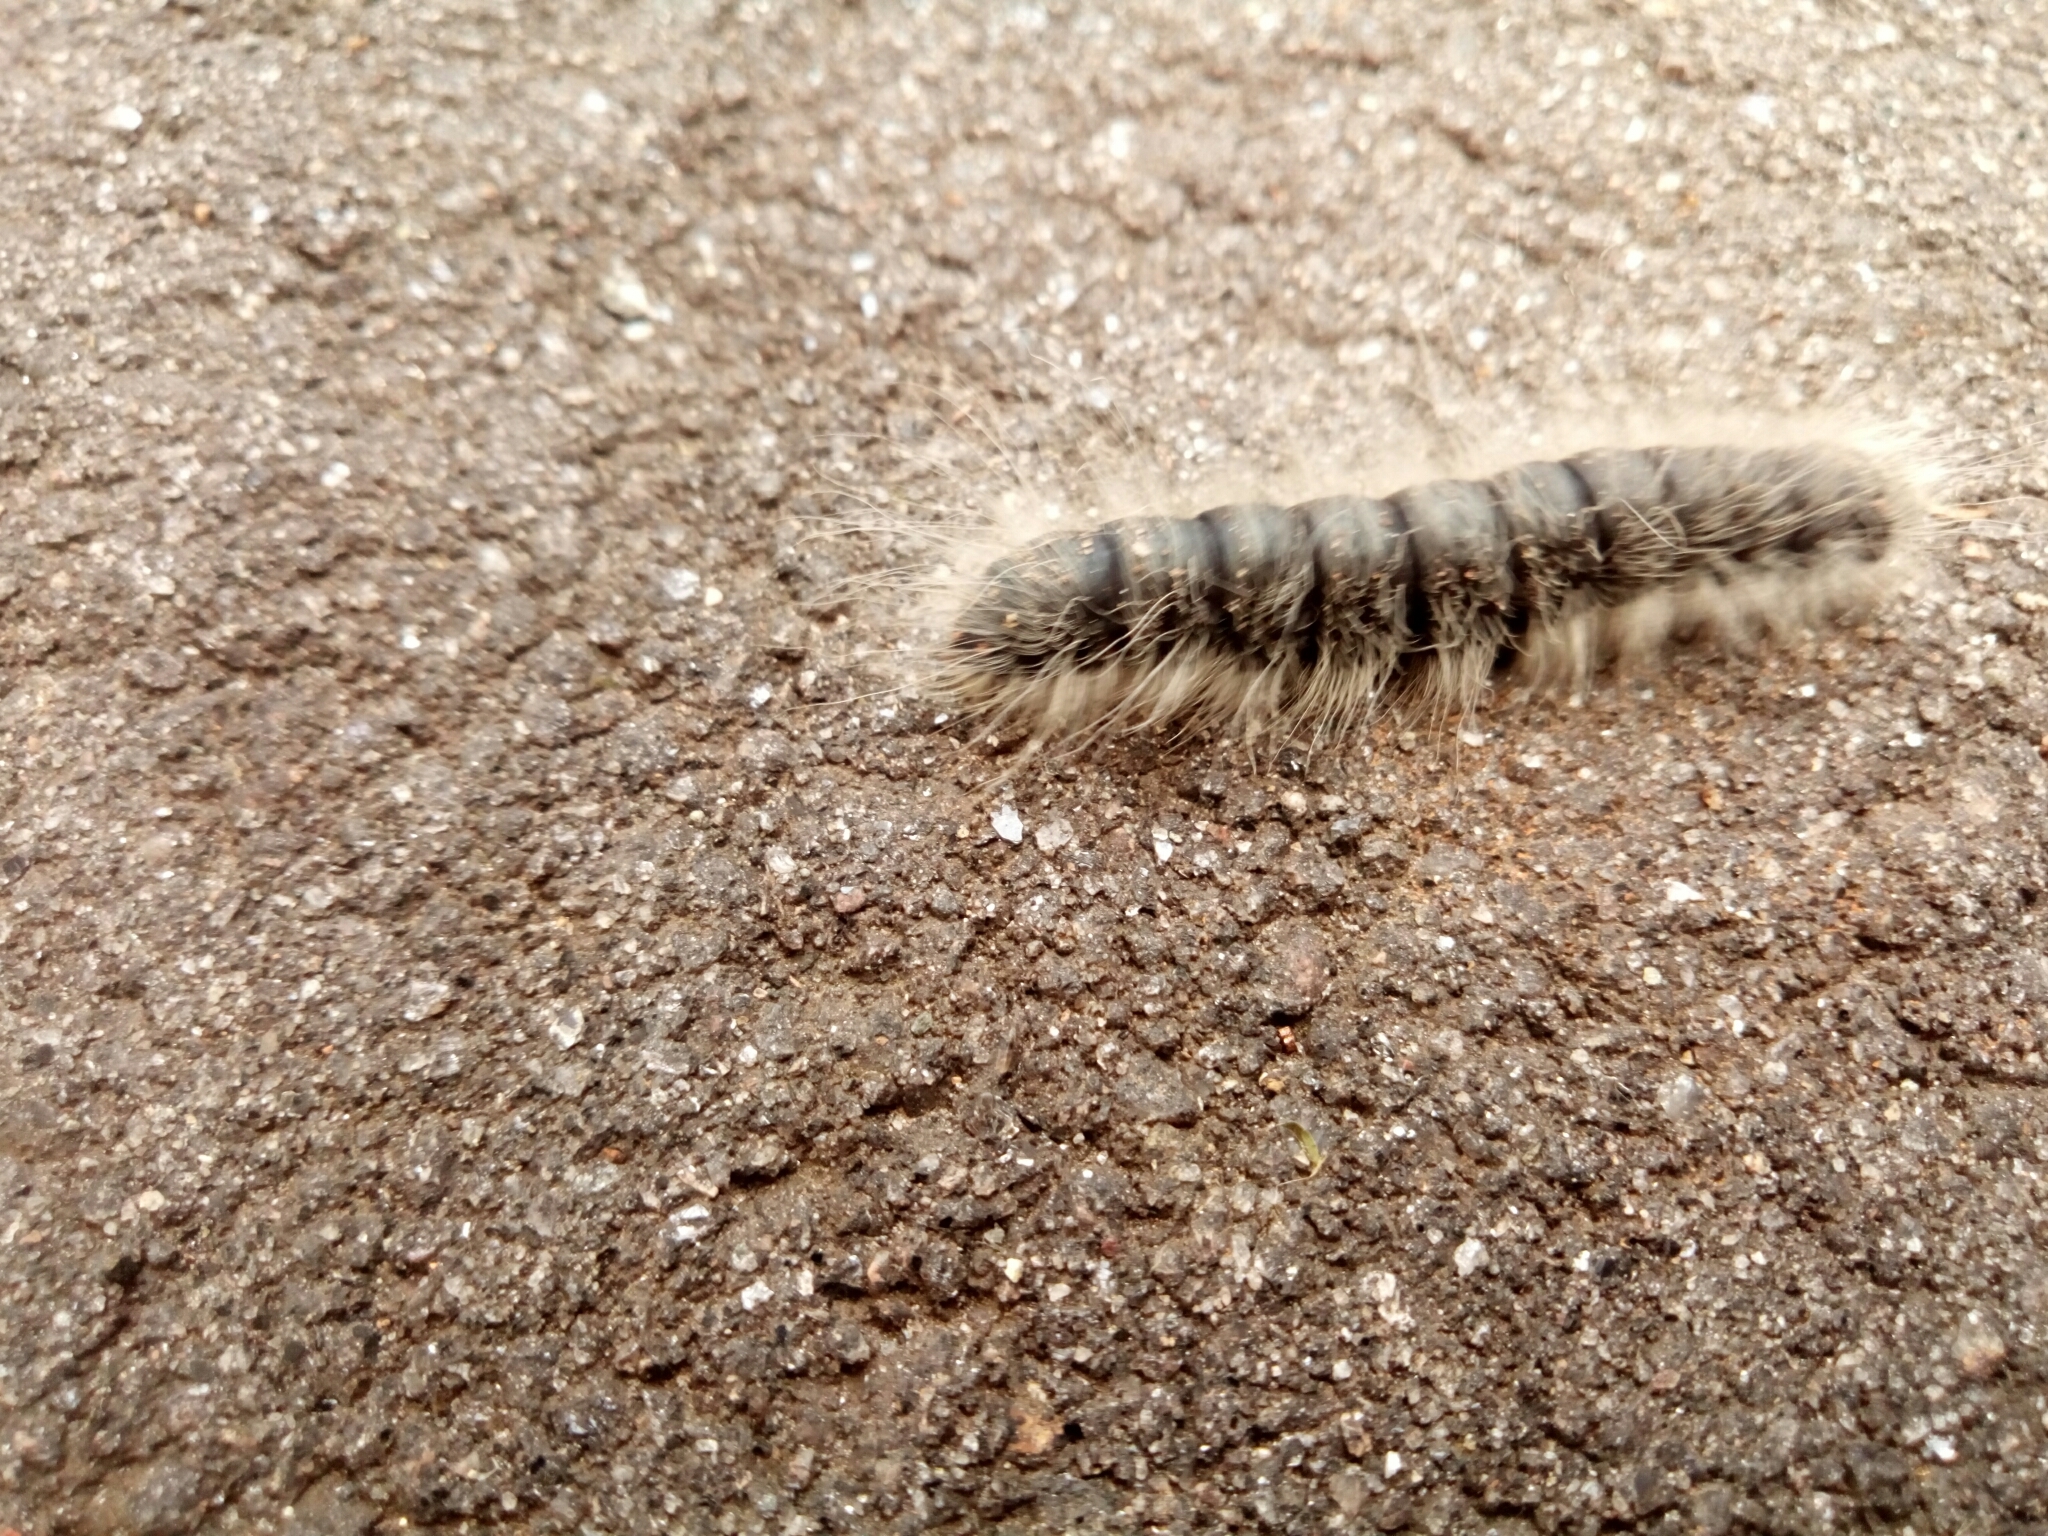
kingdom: Animalia
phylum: Arthropoda
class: Insecta
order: Lepidoptera
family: Notodontidae
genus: Datana
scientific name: Datana integerrima
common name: Walnut caterpillar
